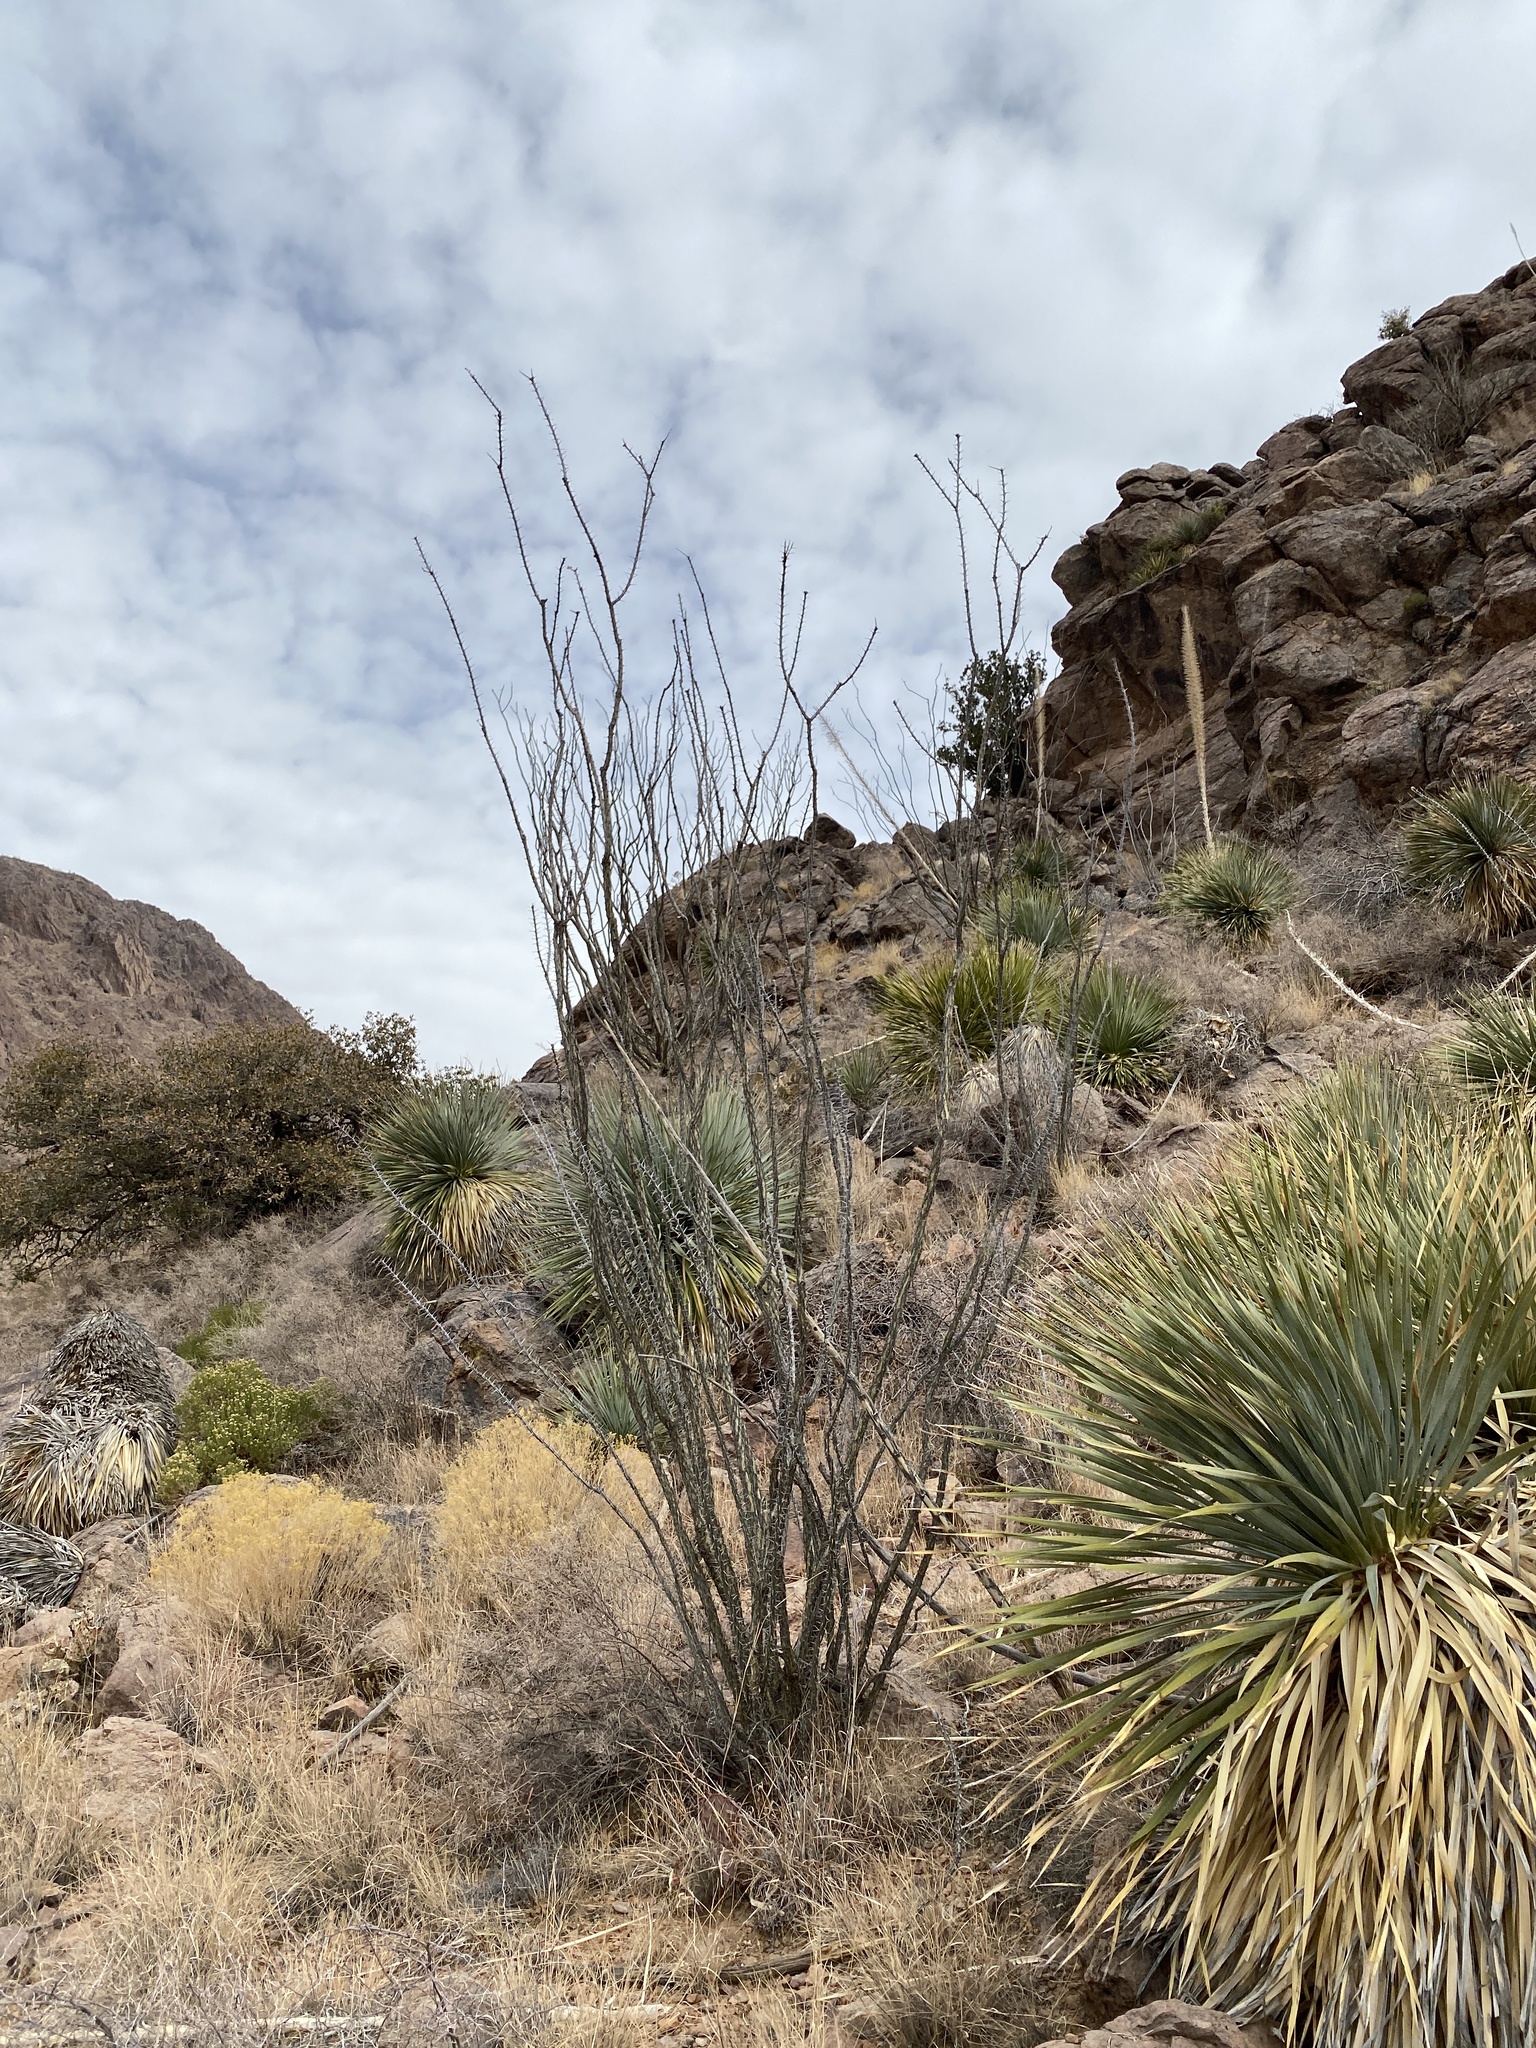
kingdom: Plantae
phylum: Tracheophyta
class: Magnoliopsida
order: Ericales
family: Fouquieriaceae
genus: Fouquieria
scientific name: Fouquieria splendens
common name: Vine-cactus
